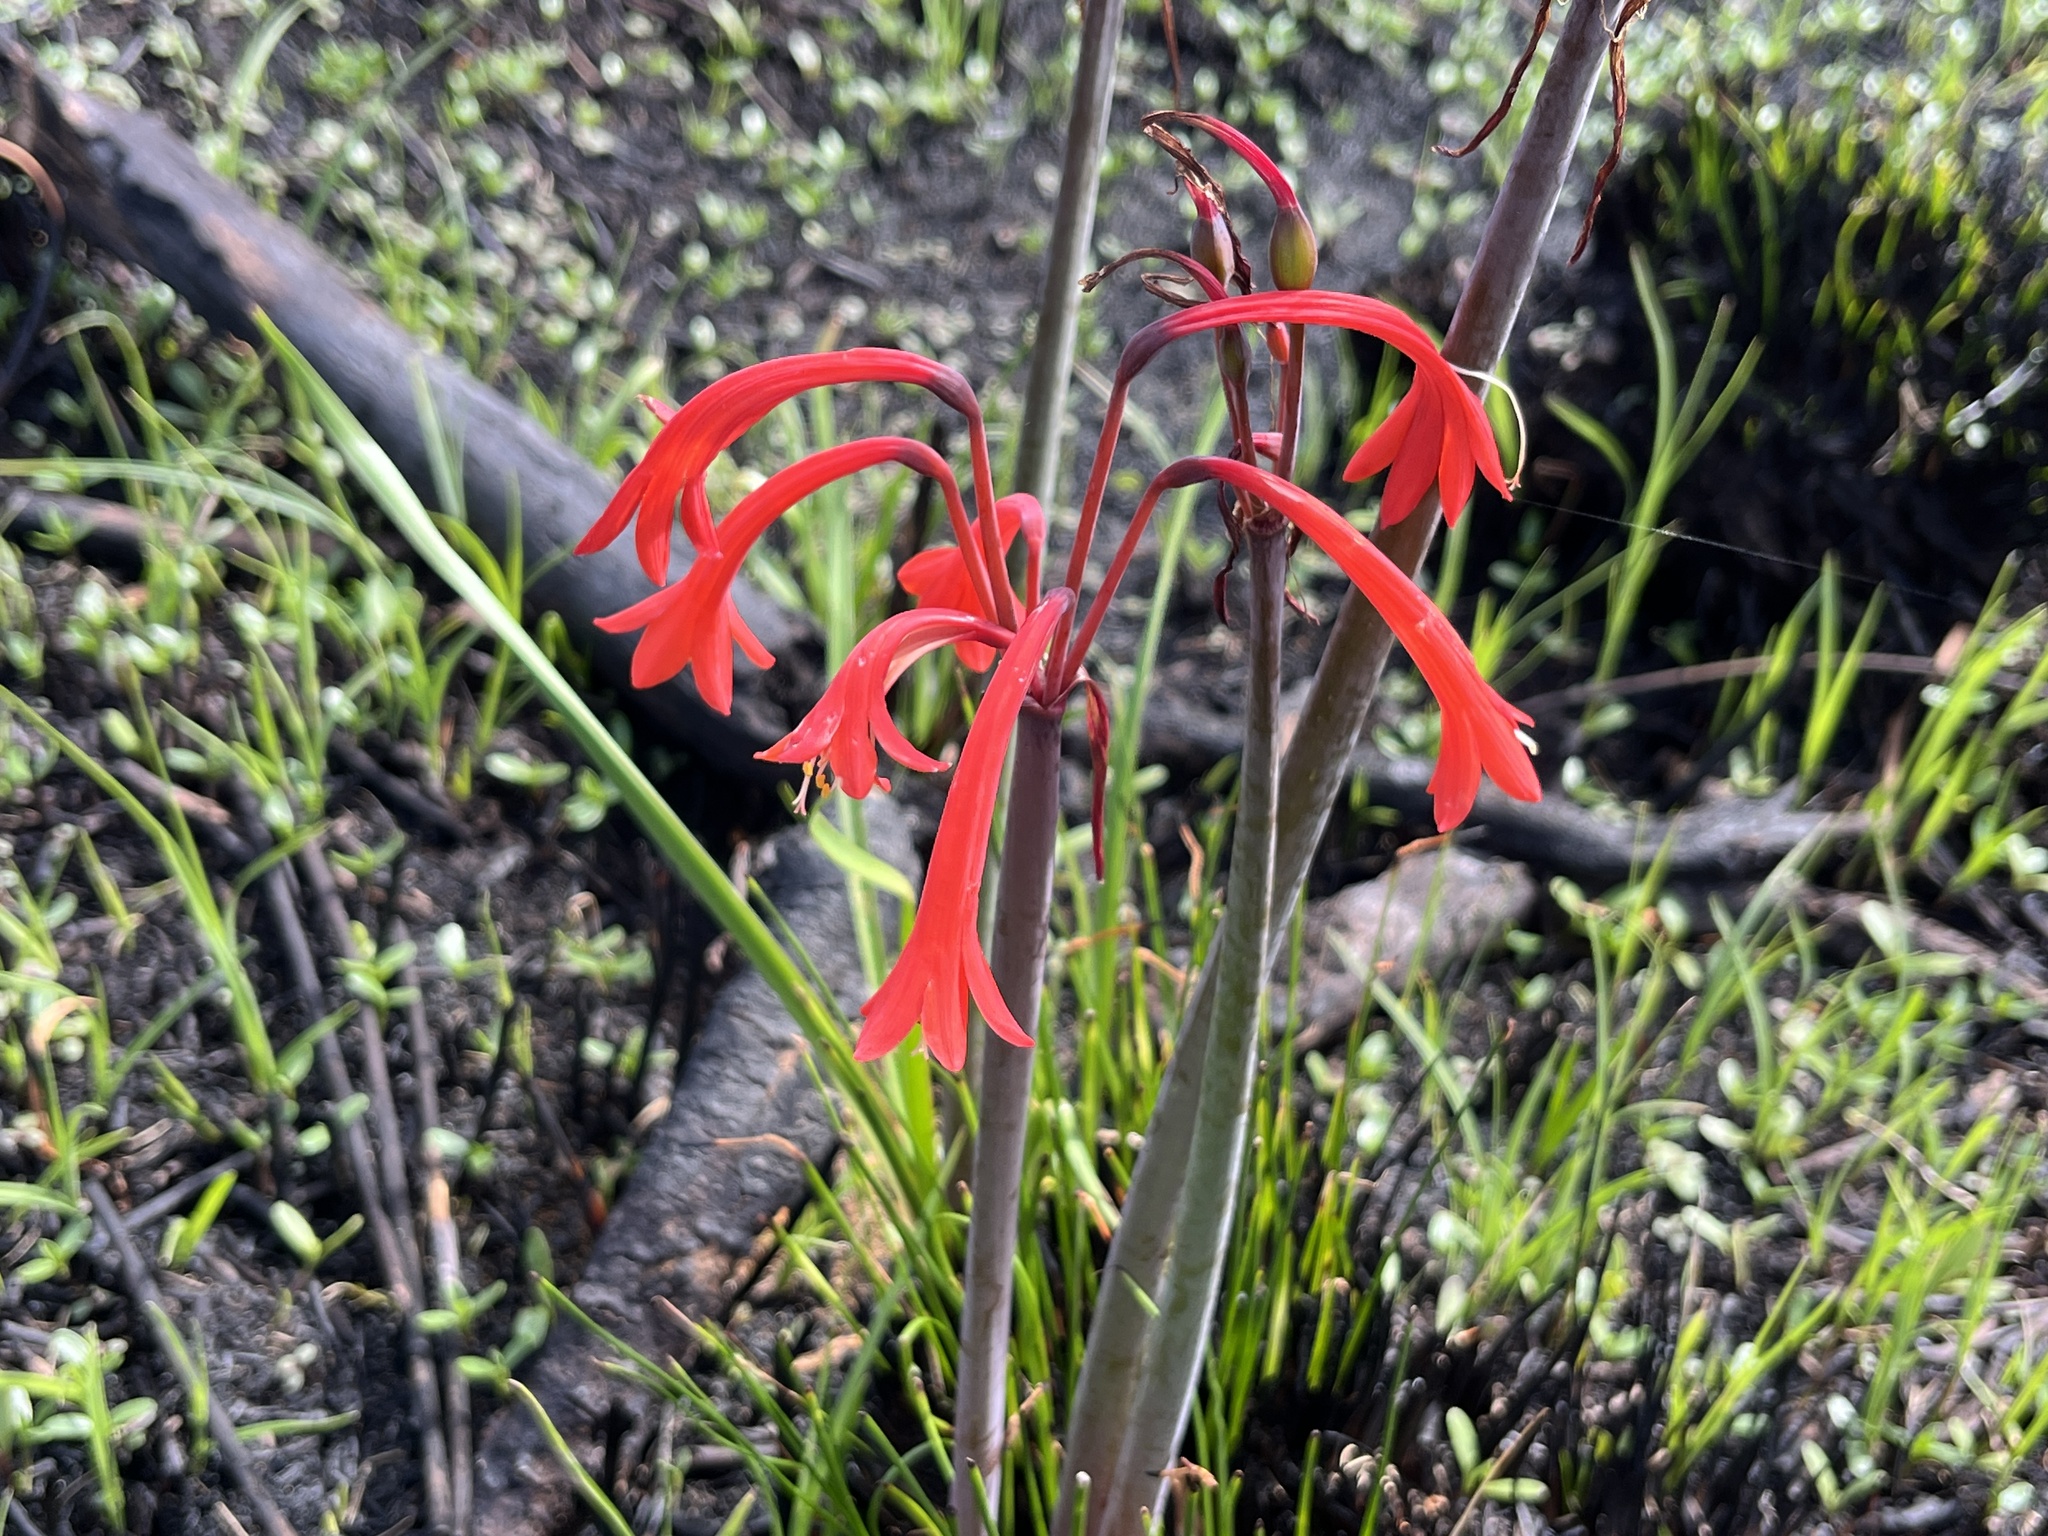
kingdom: Plantae
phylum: Tracheophyta
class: Liliopsida
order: Asparagales
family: Amaryllidaceae
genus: Cyrtanthus
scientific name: Cyrtanthus angustifolius
